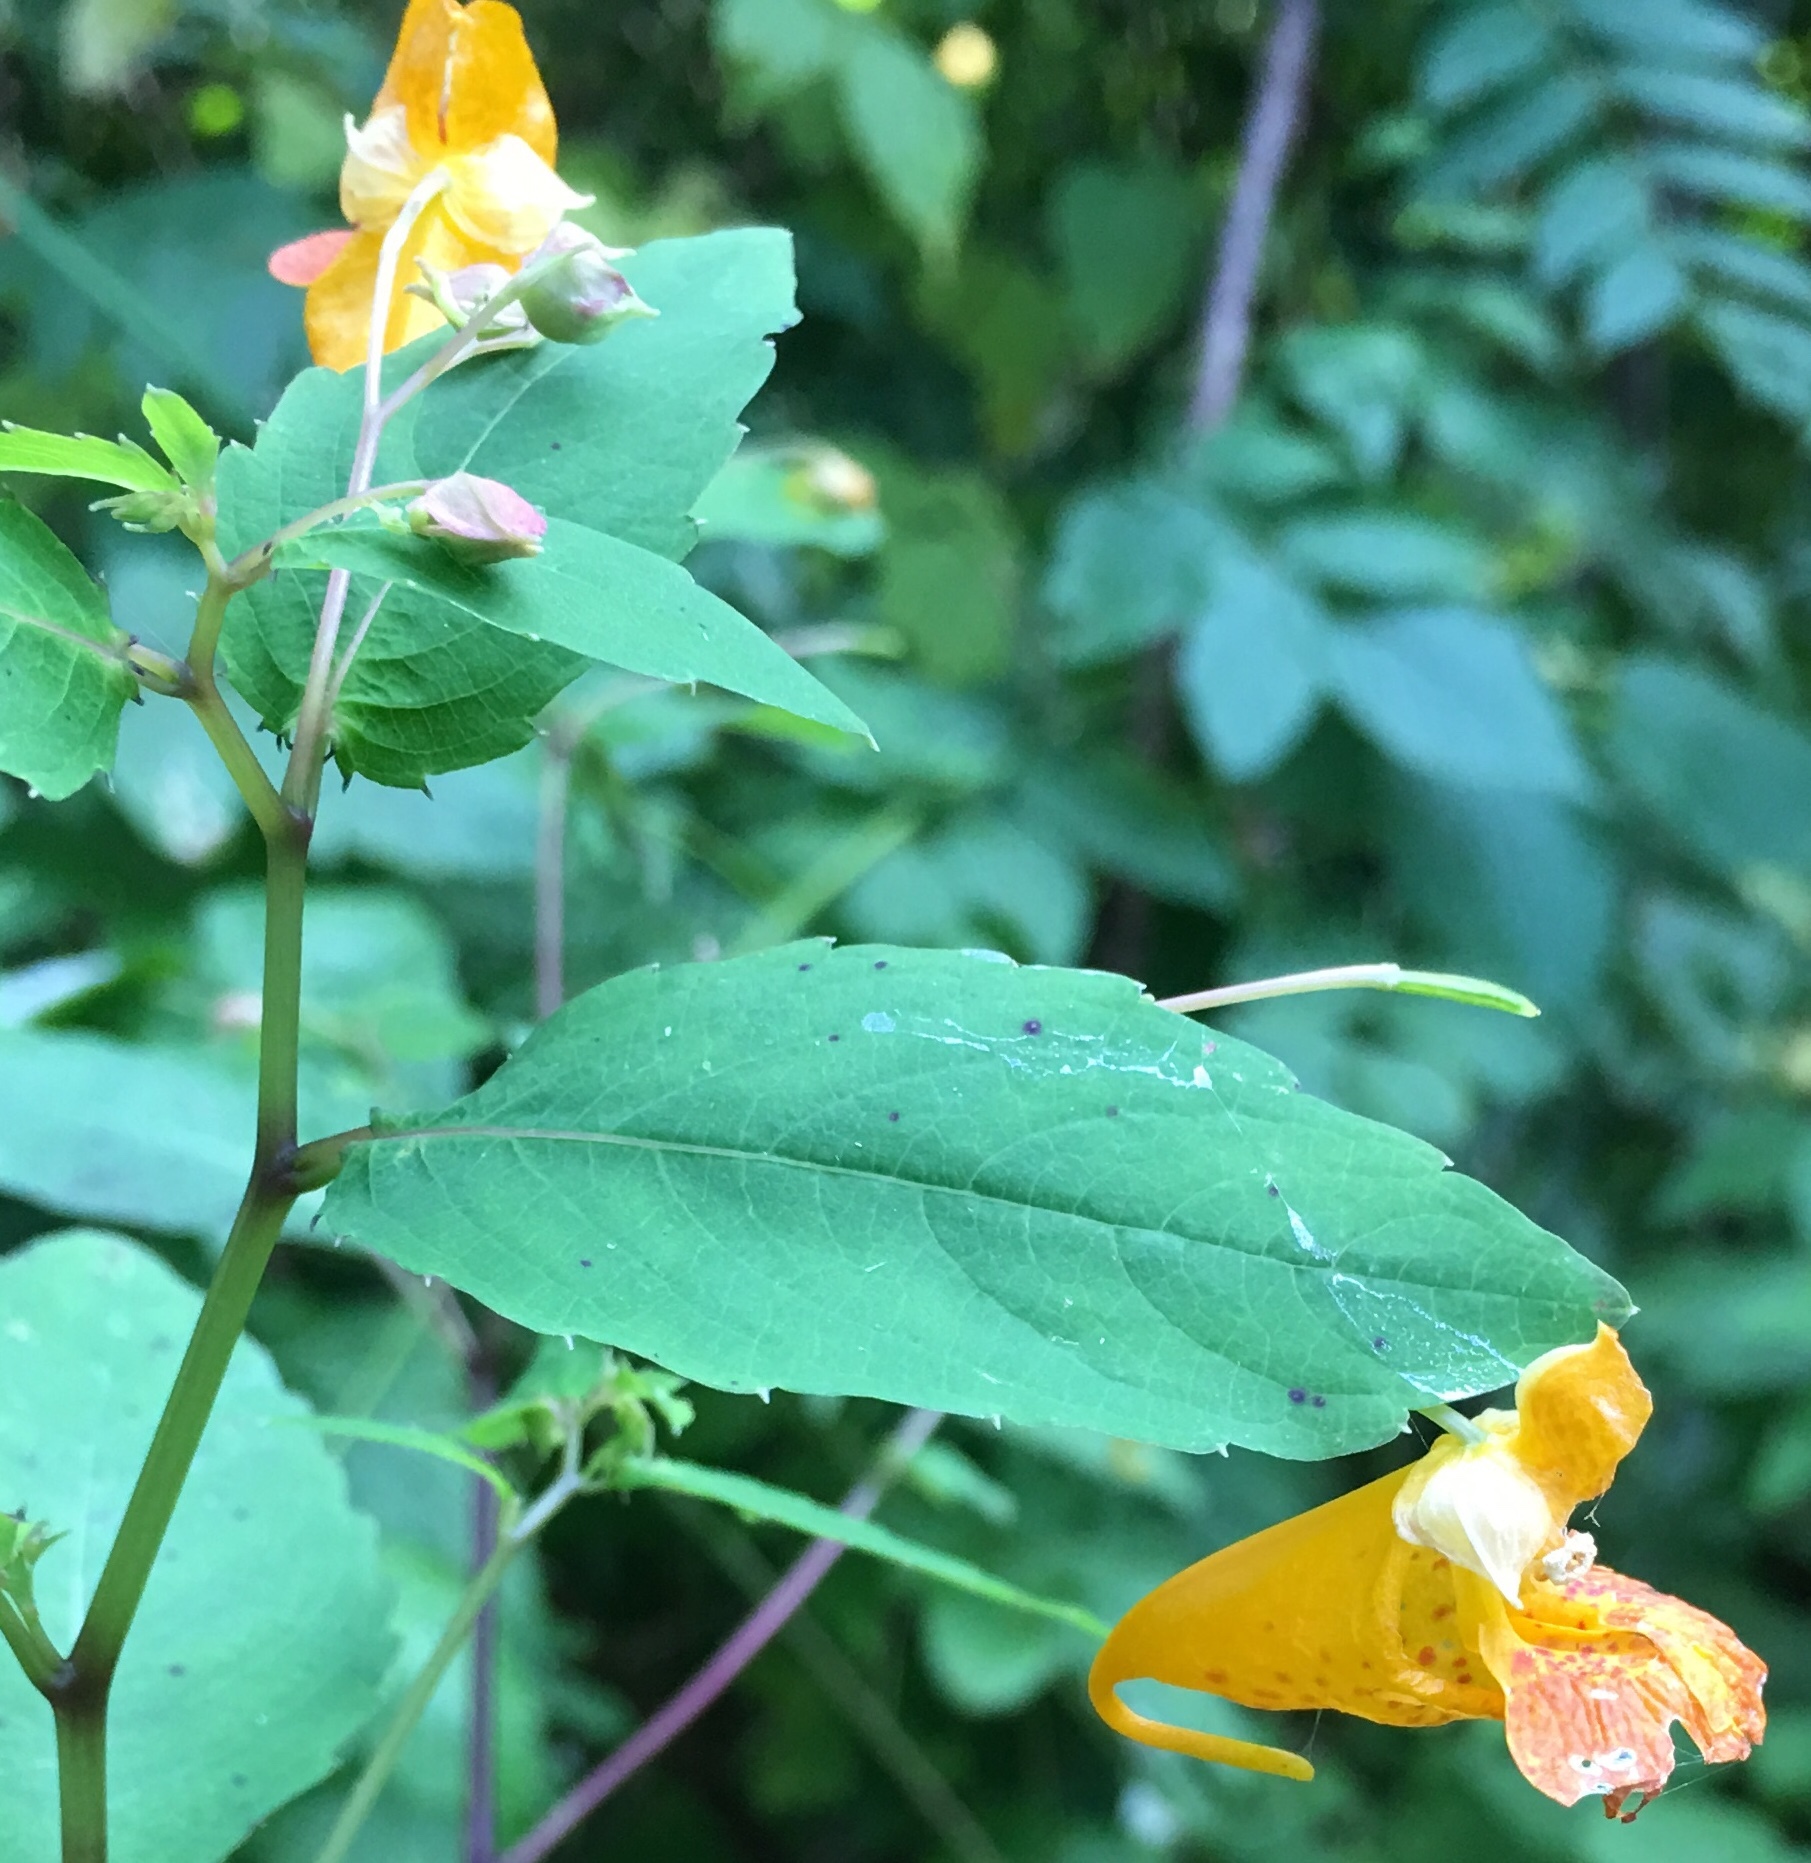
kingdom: Plantae
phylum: Tracheophyta
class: Magnoliopsida
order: Ericales
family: Balsaminaceae
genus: Impatiens
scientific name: Impatiens capensis
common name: Orange balsam
